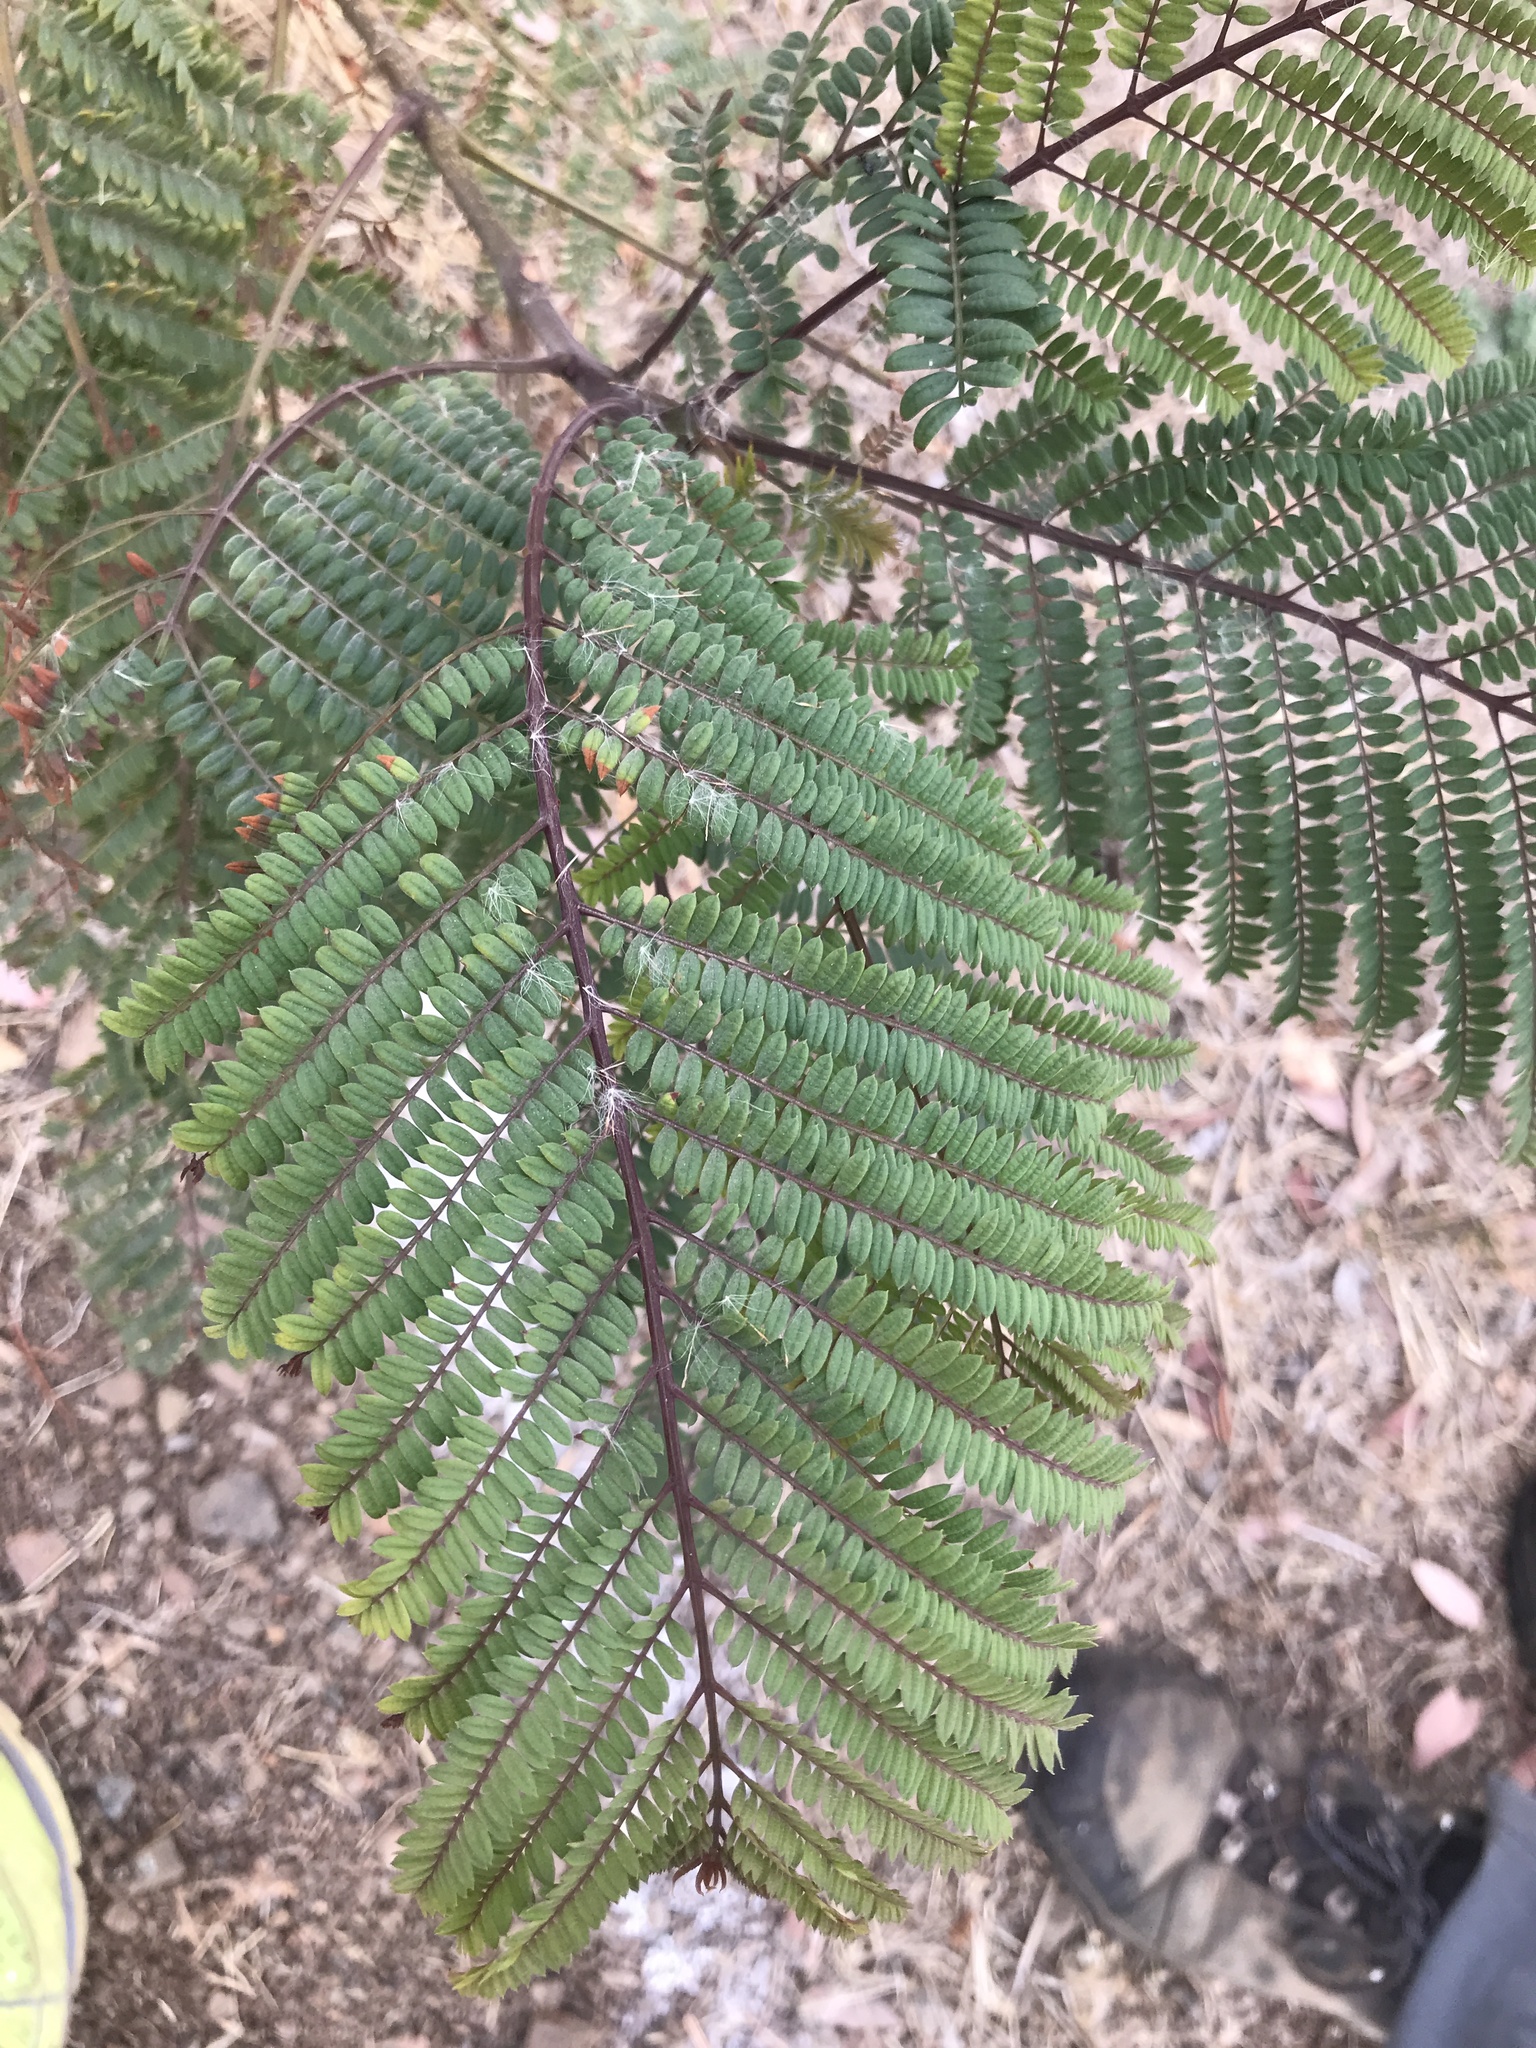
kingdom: Plantae
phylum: Tracheophyta
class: Magnoliopsida
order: Fabales
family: Fabaceae
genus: Paraserianthes
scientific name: Paraserianthes lophantha
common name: Plume albizia
